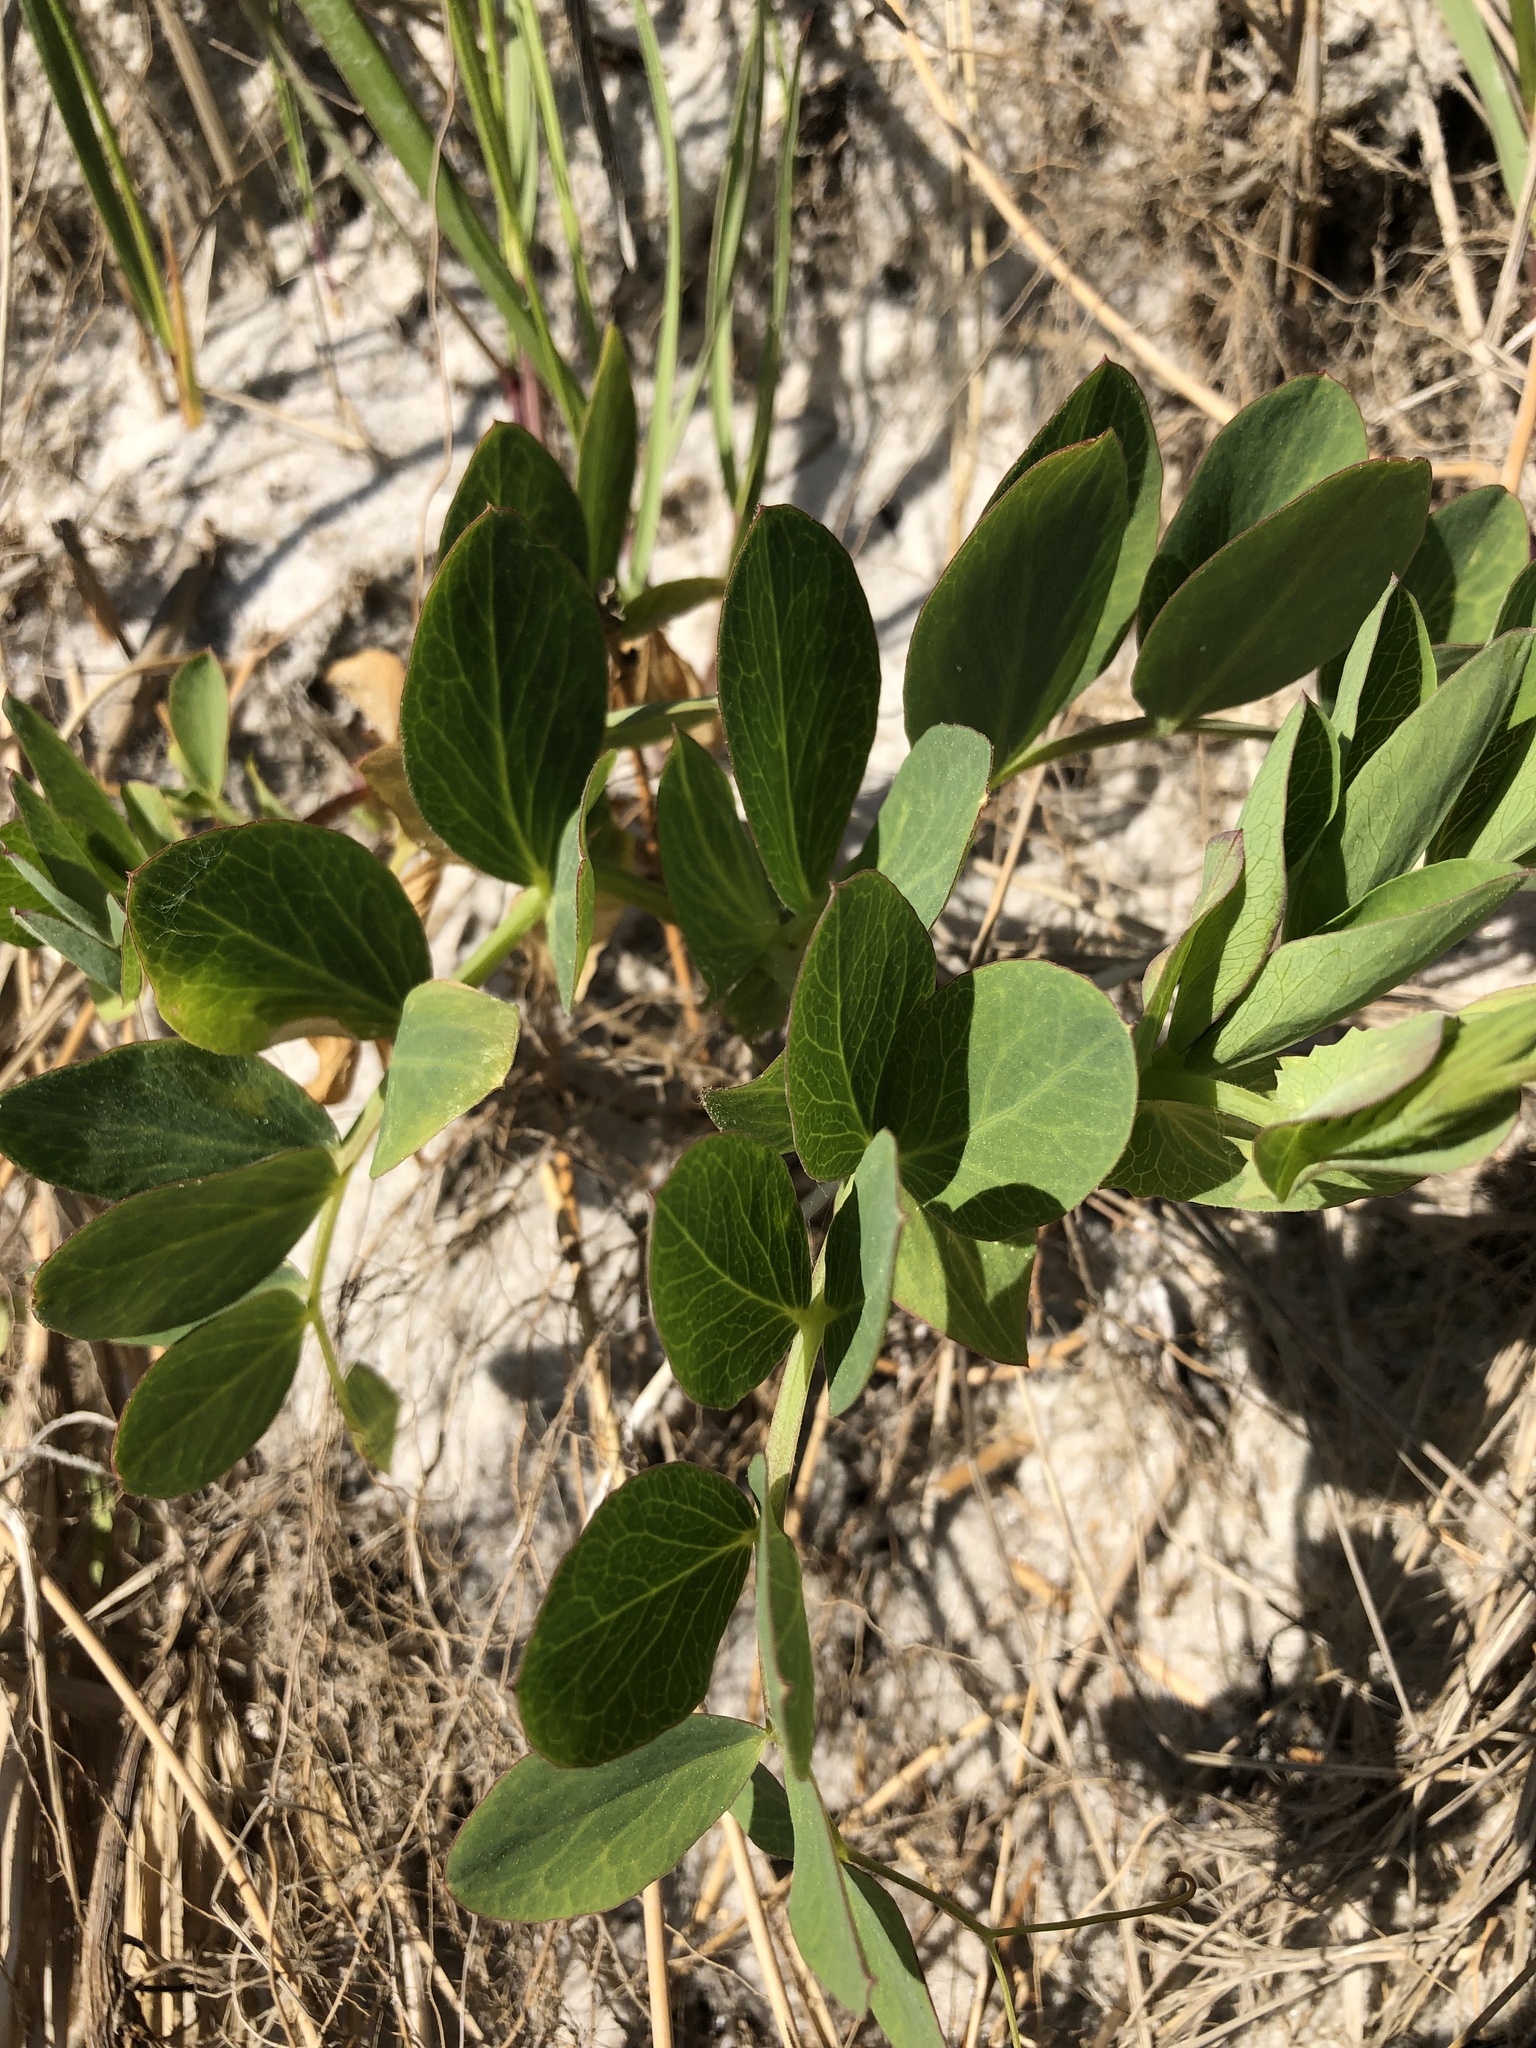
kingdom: Plantae
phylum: Tracheophyta
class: Magnoliopsida
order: Fabales
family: Fabaceae
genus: Lathyrus
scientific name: Lathyrus japonicus
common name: Sea pea
